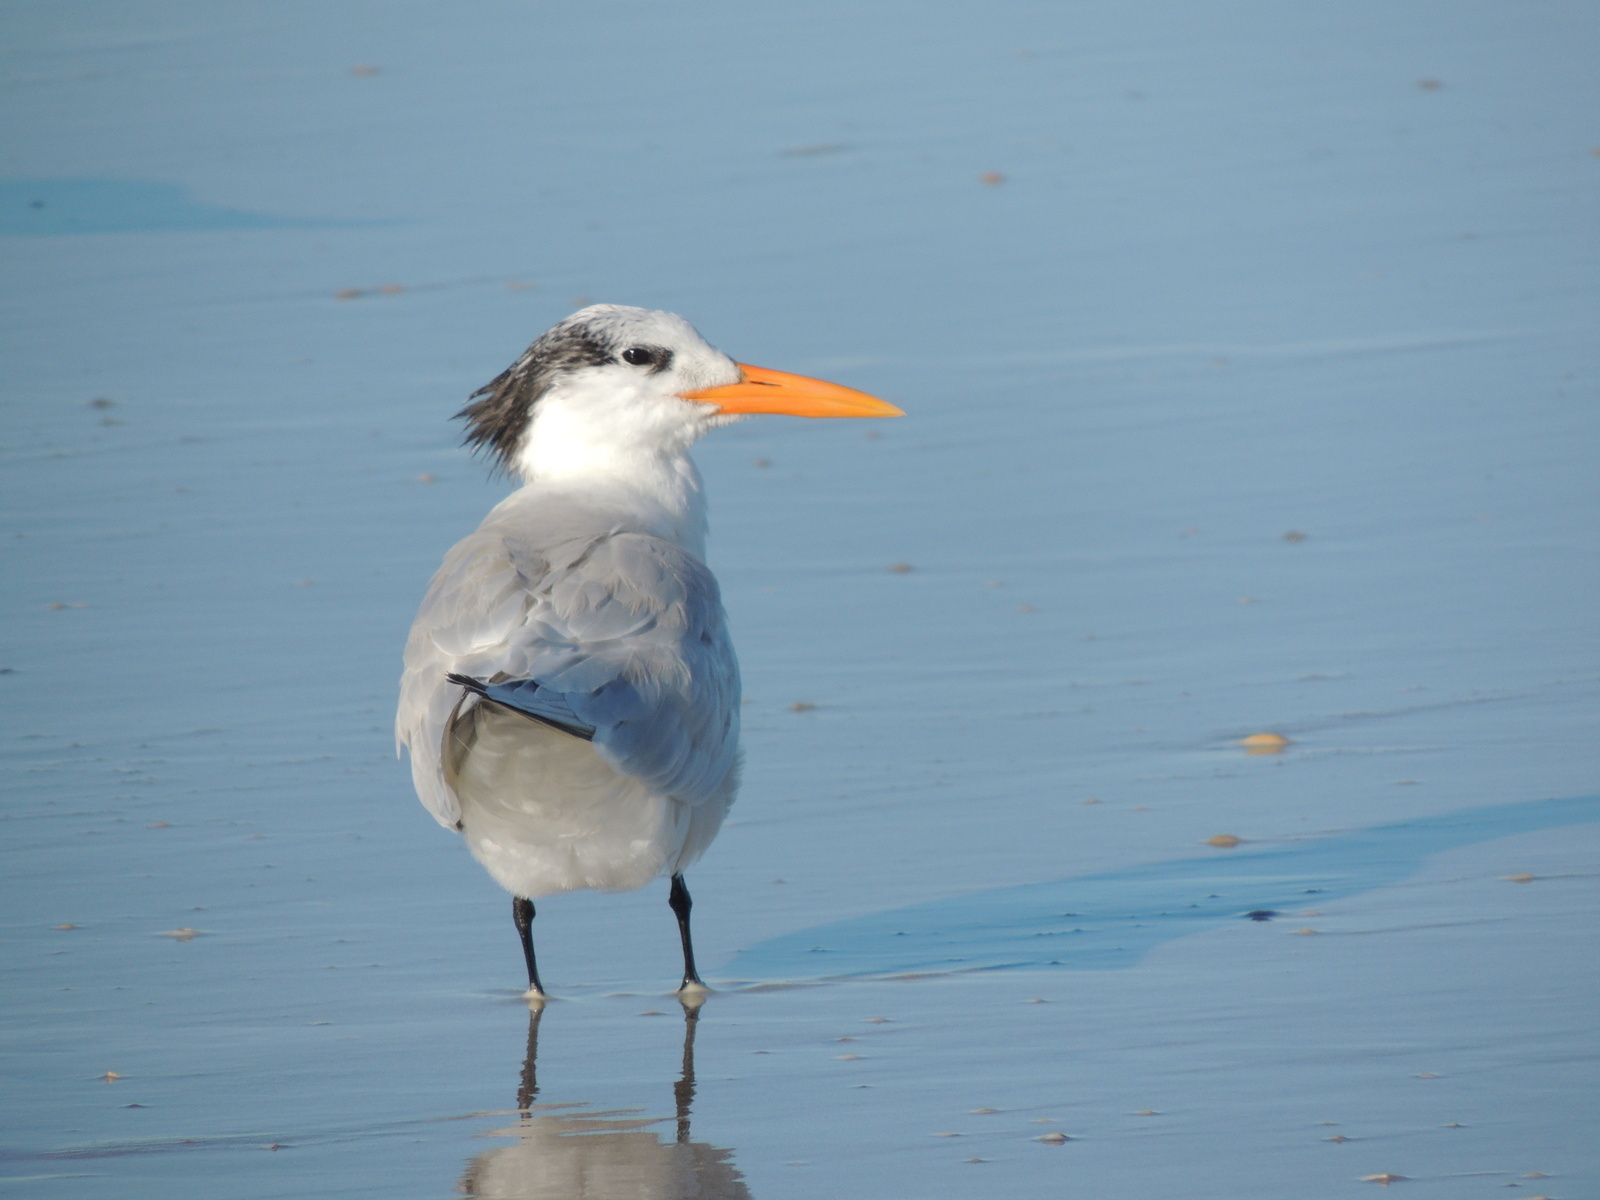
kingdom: Animalia
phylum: Chordata
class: Aves
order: Charadriiformes
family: Laridae
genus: Thalasseus
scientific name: Thalasseus maximus
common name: Royal tern
